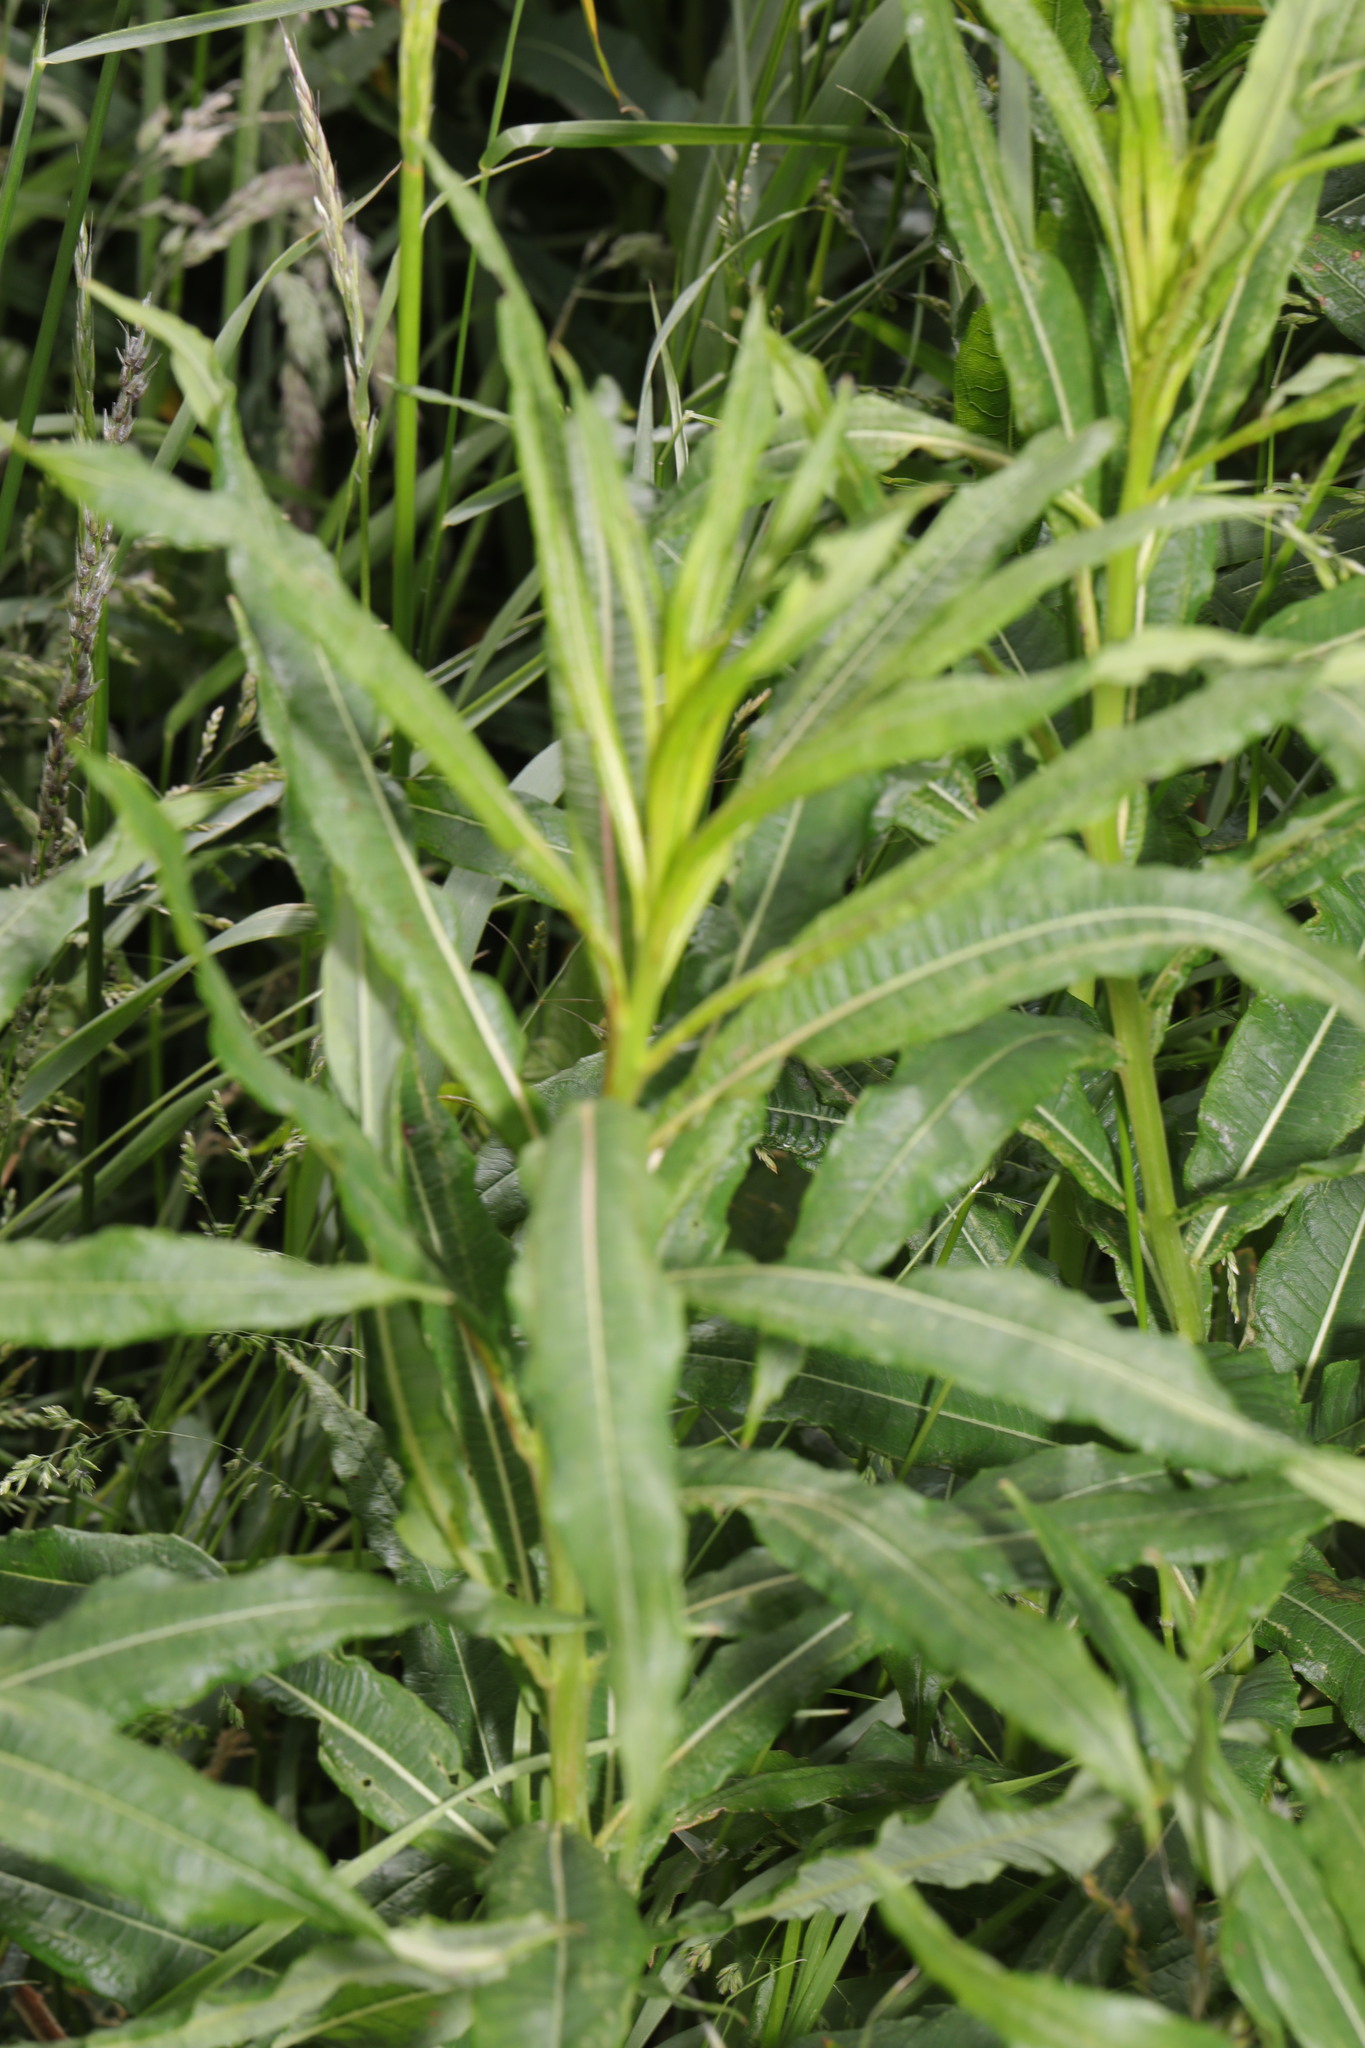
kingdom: Plantae
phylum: Tracheophyta
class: Magnoliopsida
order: Myrtales
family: Onagraceae
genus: Chamaenerion
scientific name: Chamaenerion angustifolium
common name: Fireweed
